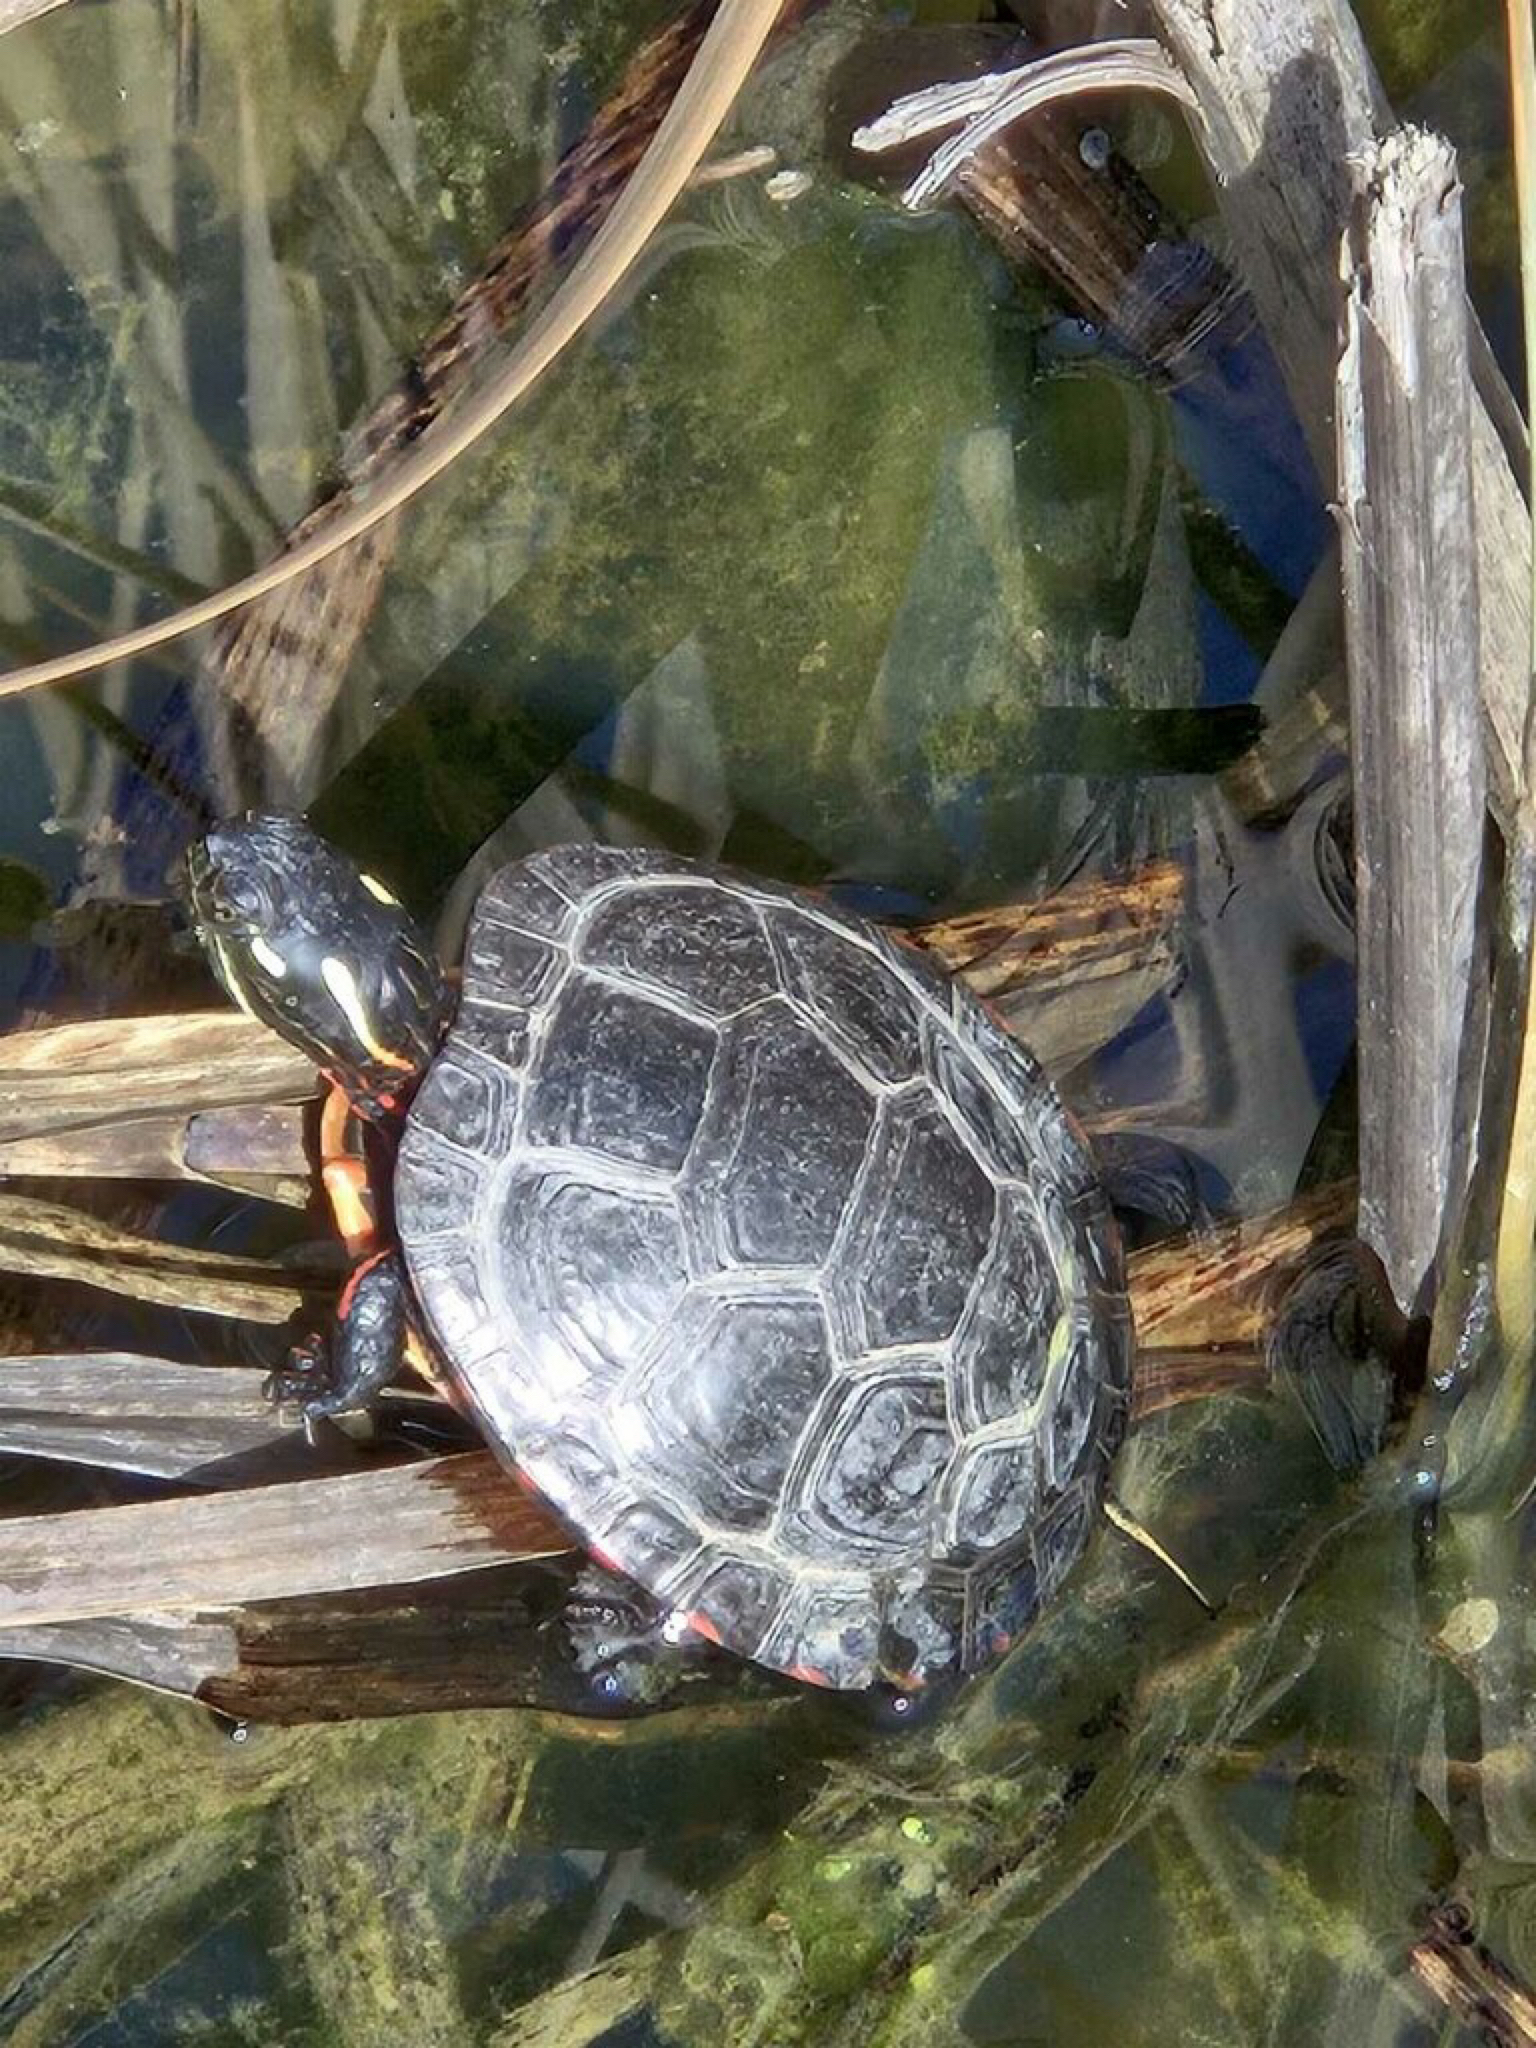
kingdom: Animalia
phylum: Chordata
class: Testudines
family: Emydidae
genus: Chrysemys
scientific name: Chrysemys picta
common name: Painted turtle
